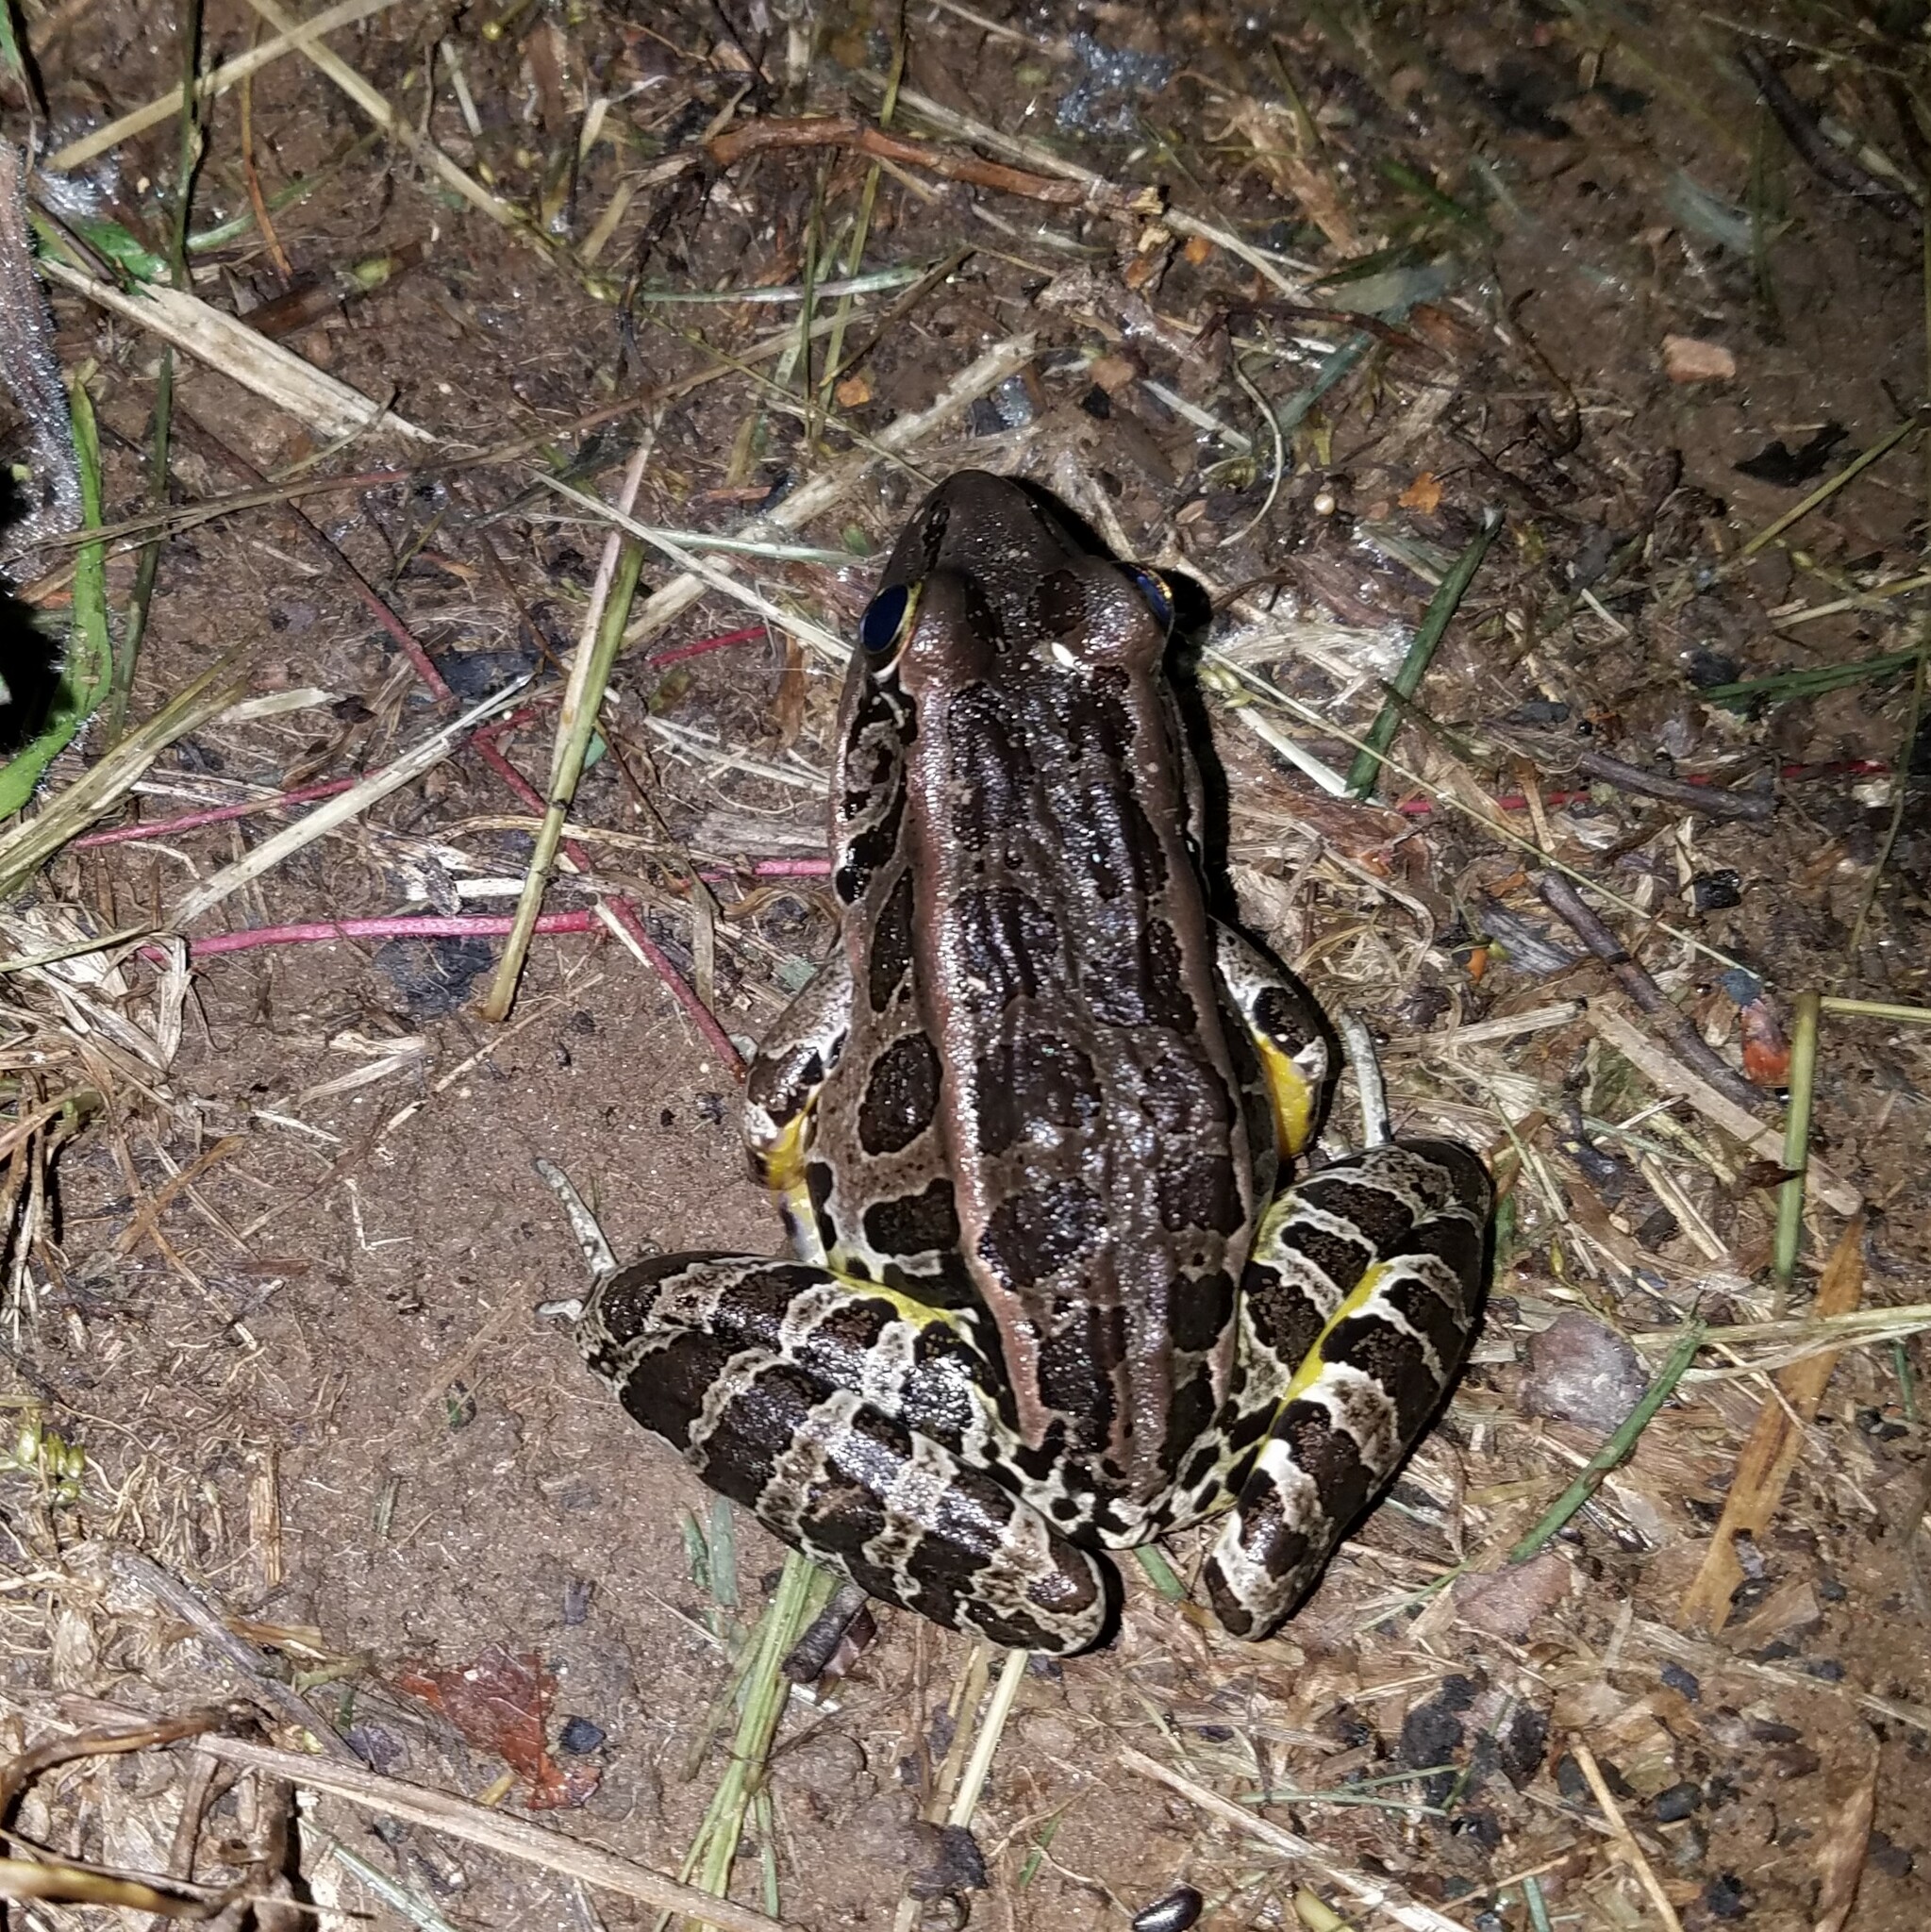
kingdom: Animalia
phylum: Chordata
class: Amphibia
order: Anura
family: Ranidae
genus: Lithobates
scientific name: Lithobates palustris
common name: Pickerel frog
